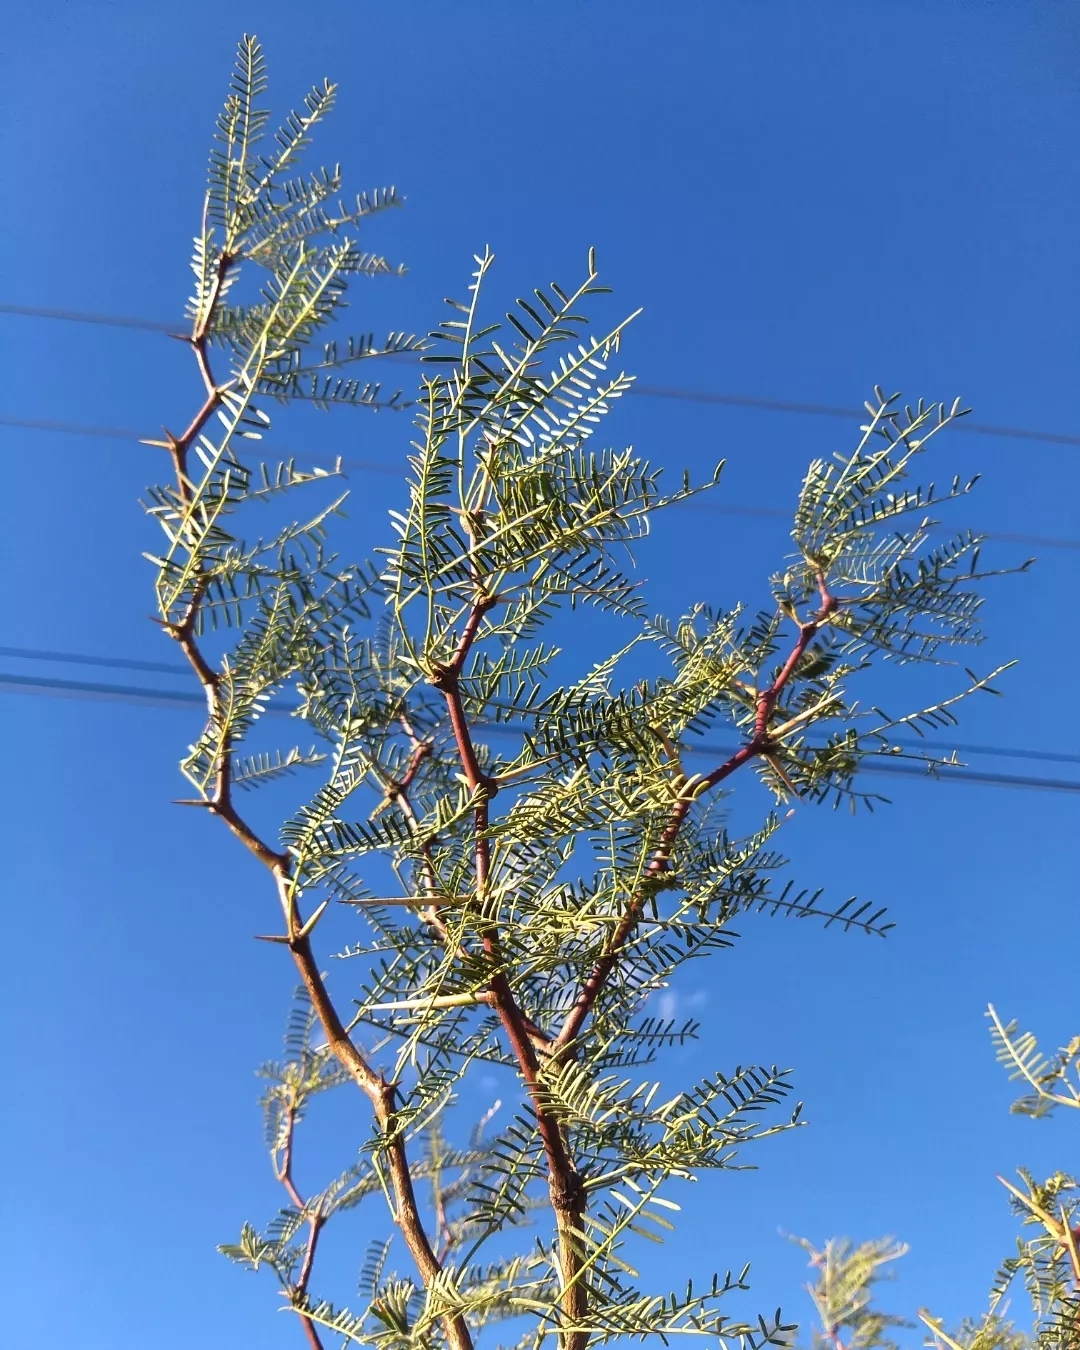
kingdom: Plantae
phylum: Tracheophyta
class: Magnoliopsida
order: Fabales
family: Fabaceae
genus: Prosopis
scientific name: Prosopis flexuosa
